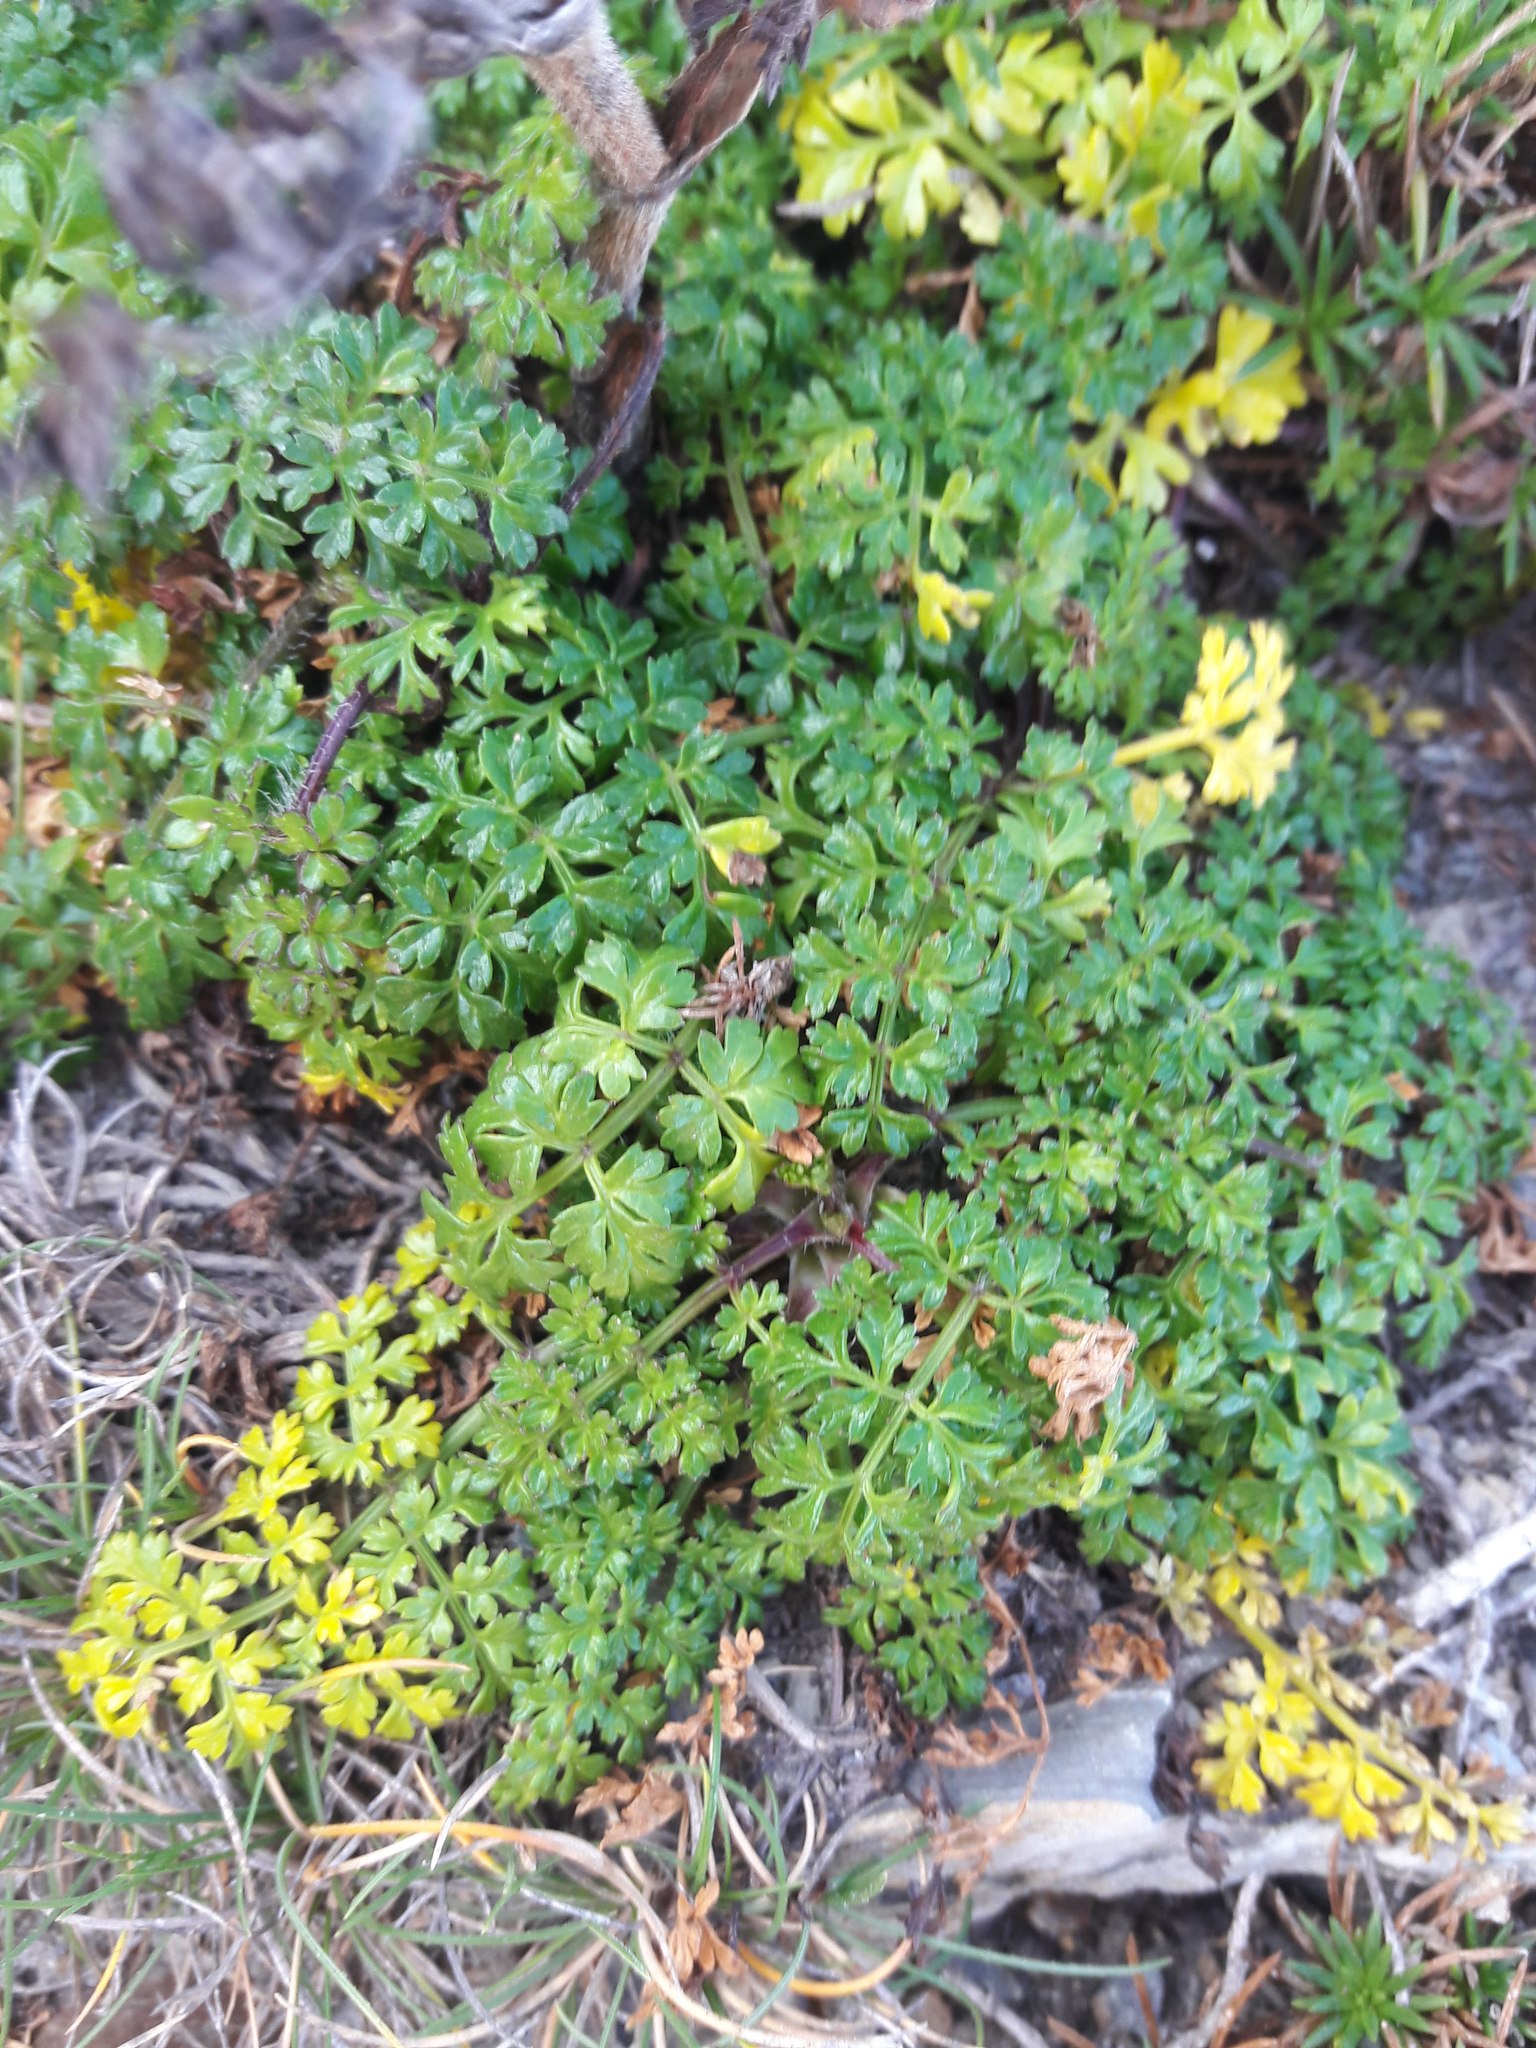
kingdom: Plantae
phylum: Tracheophyta
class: Magnoliopsida
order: Apiales
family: Apiaceae
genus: Daucus
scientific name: Daucus carota
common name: Wild carrot
